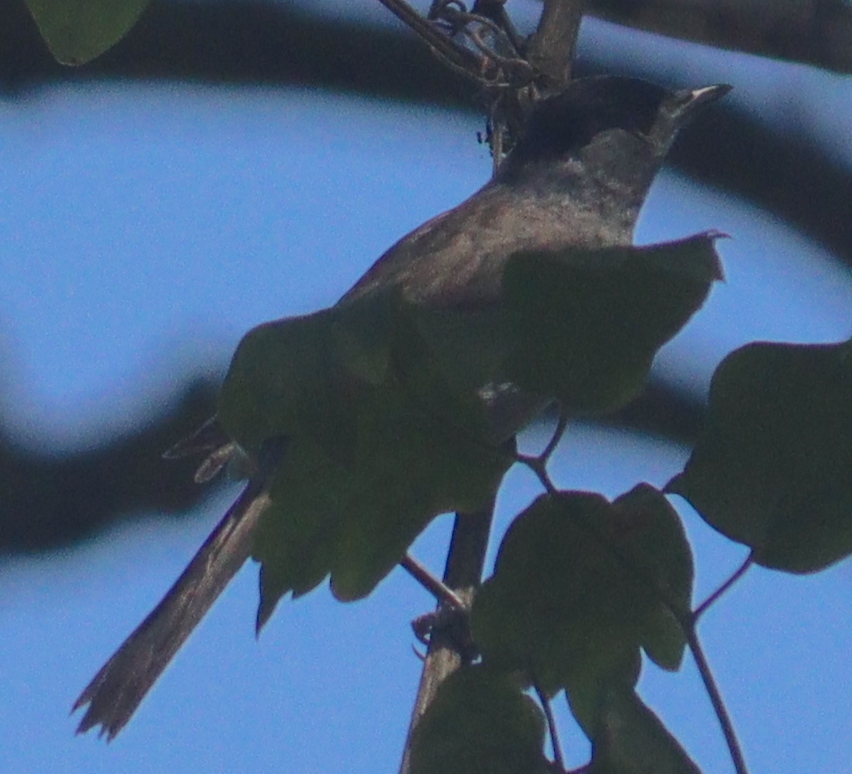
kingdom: Animalia
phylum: Chordata
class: Aves
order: Passeriformes
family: Sylviidae
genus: Sylvia
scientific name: Sylvia atricapilla
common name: Eurasian blackcap
